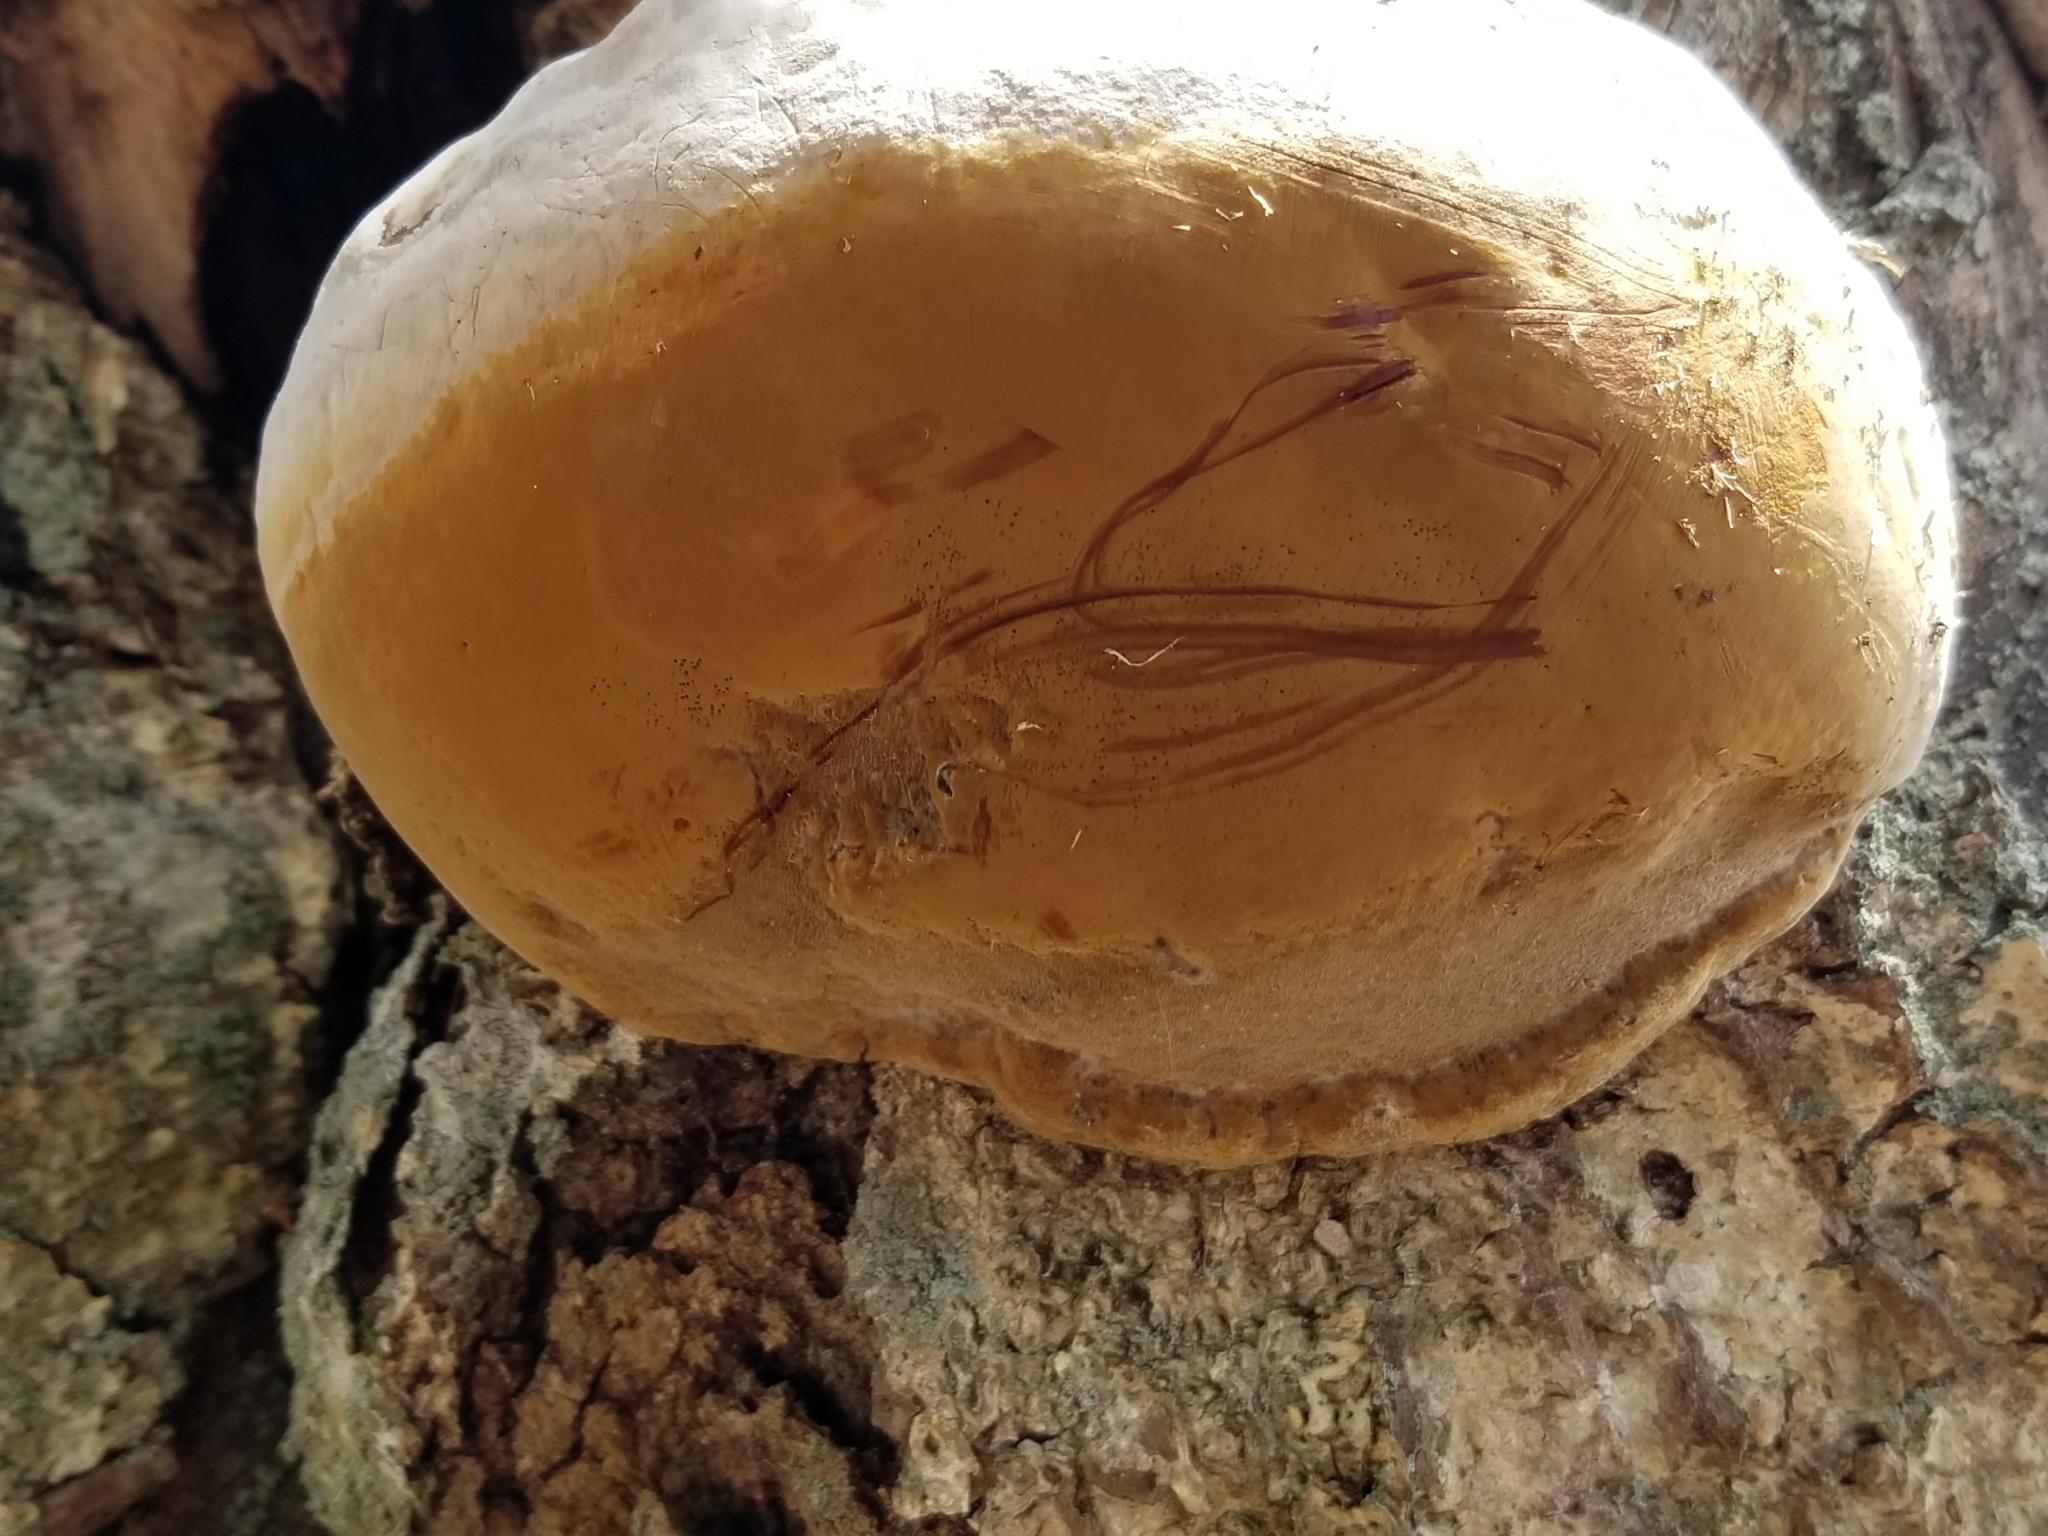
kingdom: Fungi
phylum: Basidiomycota
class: Agaricomycetes
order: Polyporales
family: Polyporaceae
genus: Cryptoporus
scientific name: Cryptoporus volvatus
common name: Veiled polypore
